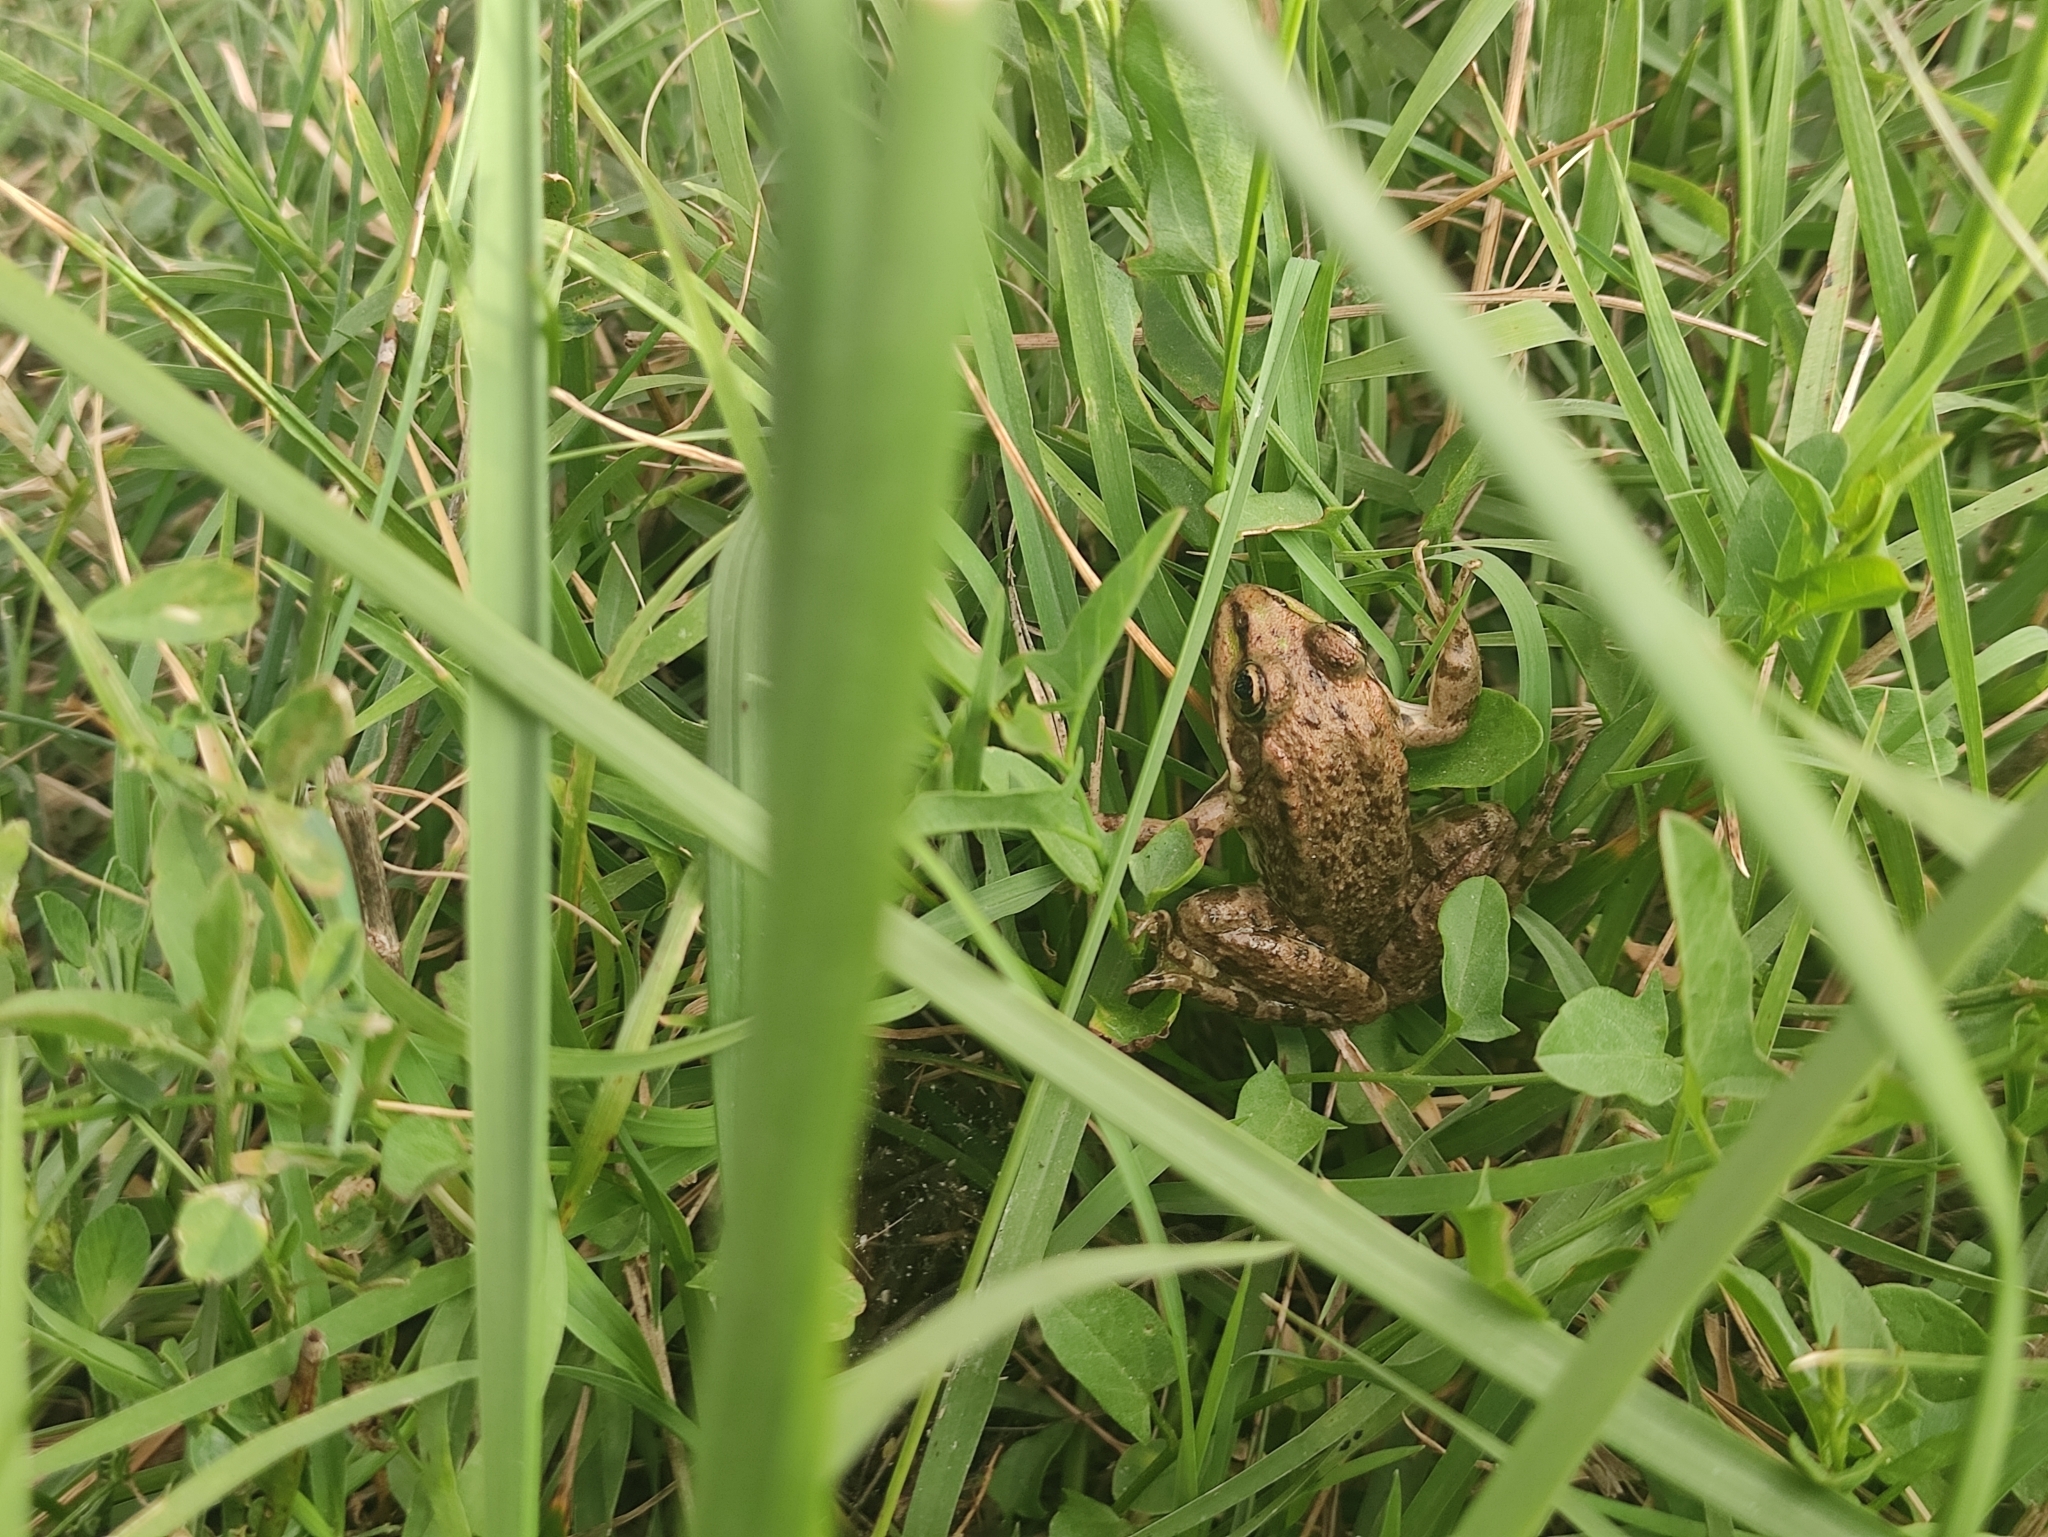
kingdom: Animalia
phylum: Chordata
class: Amphibia
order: Anura
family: Ranidae
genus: Pelophylax
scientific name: Pelophylax
